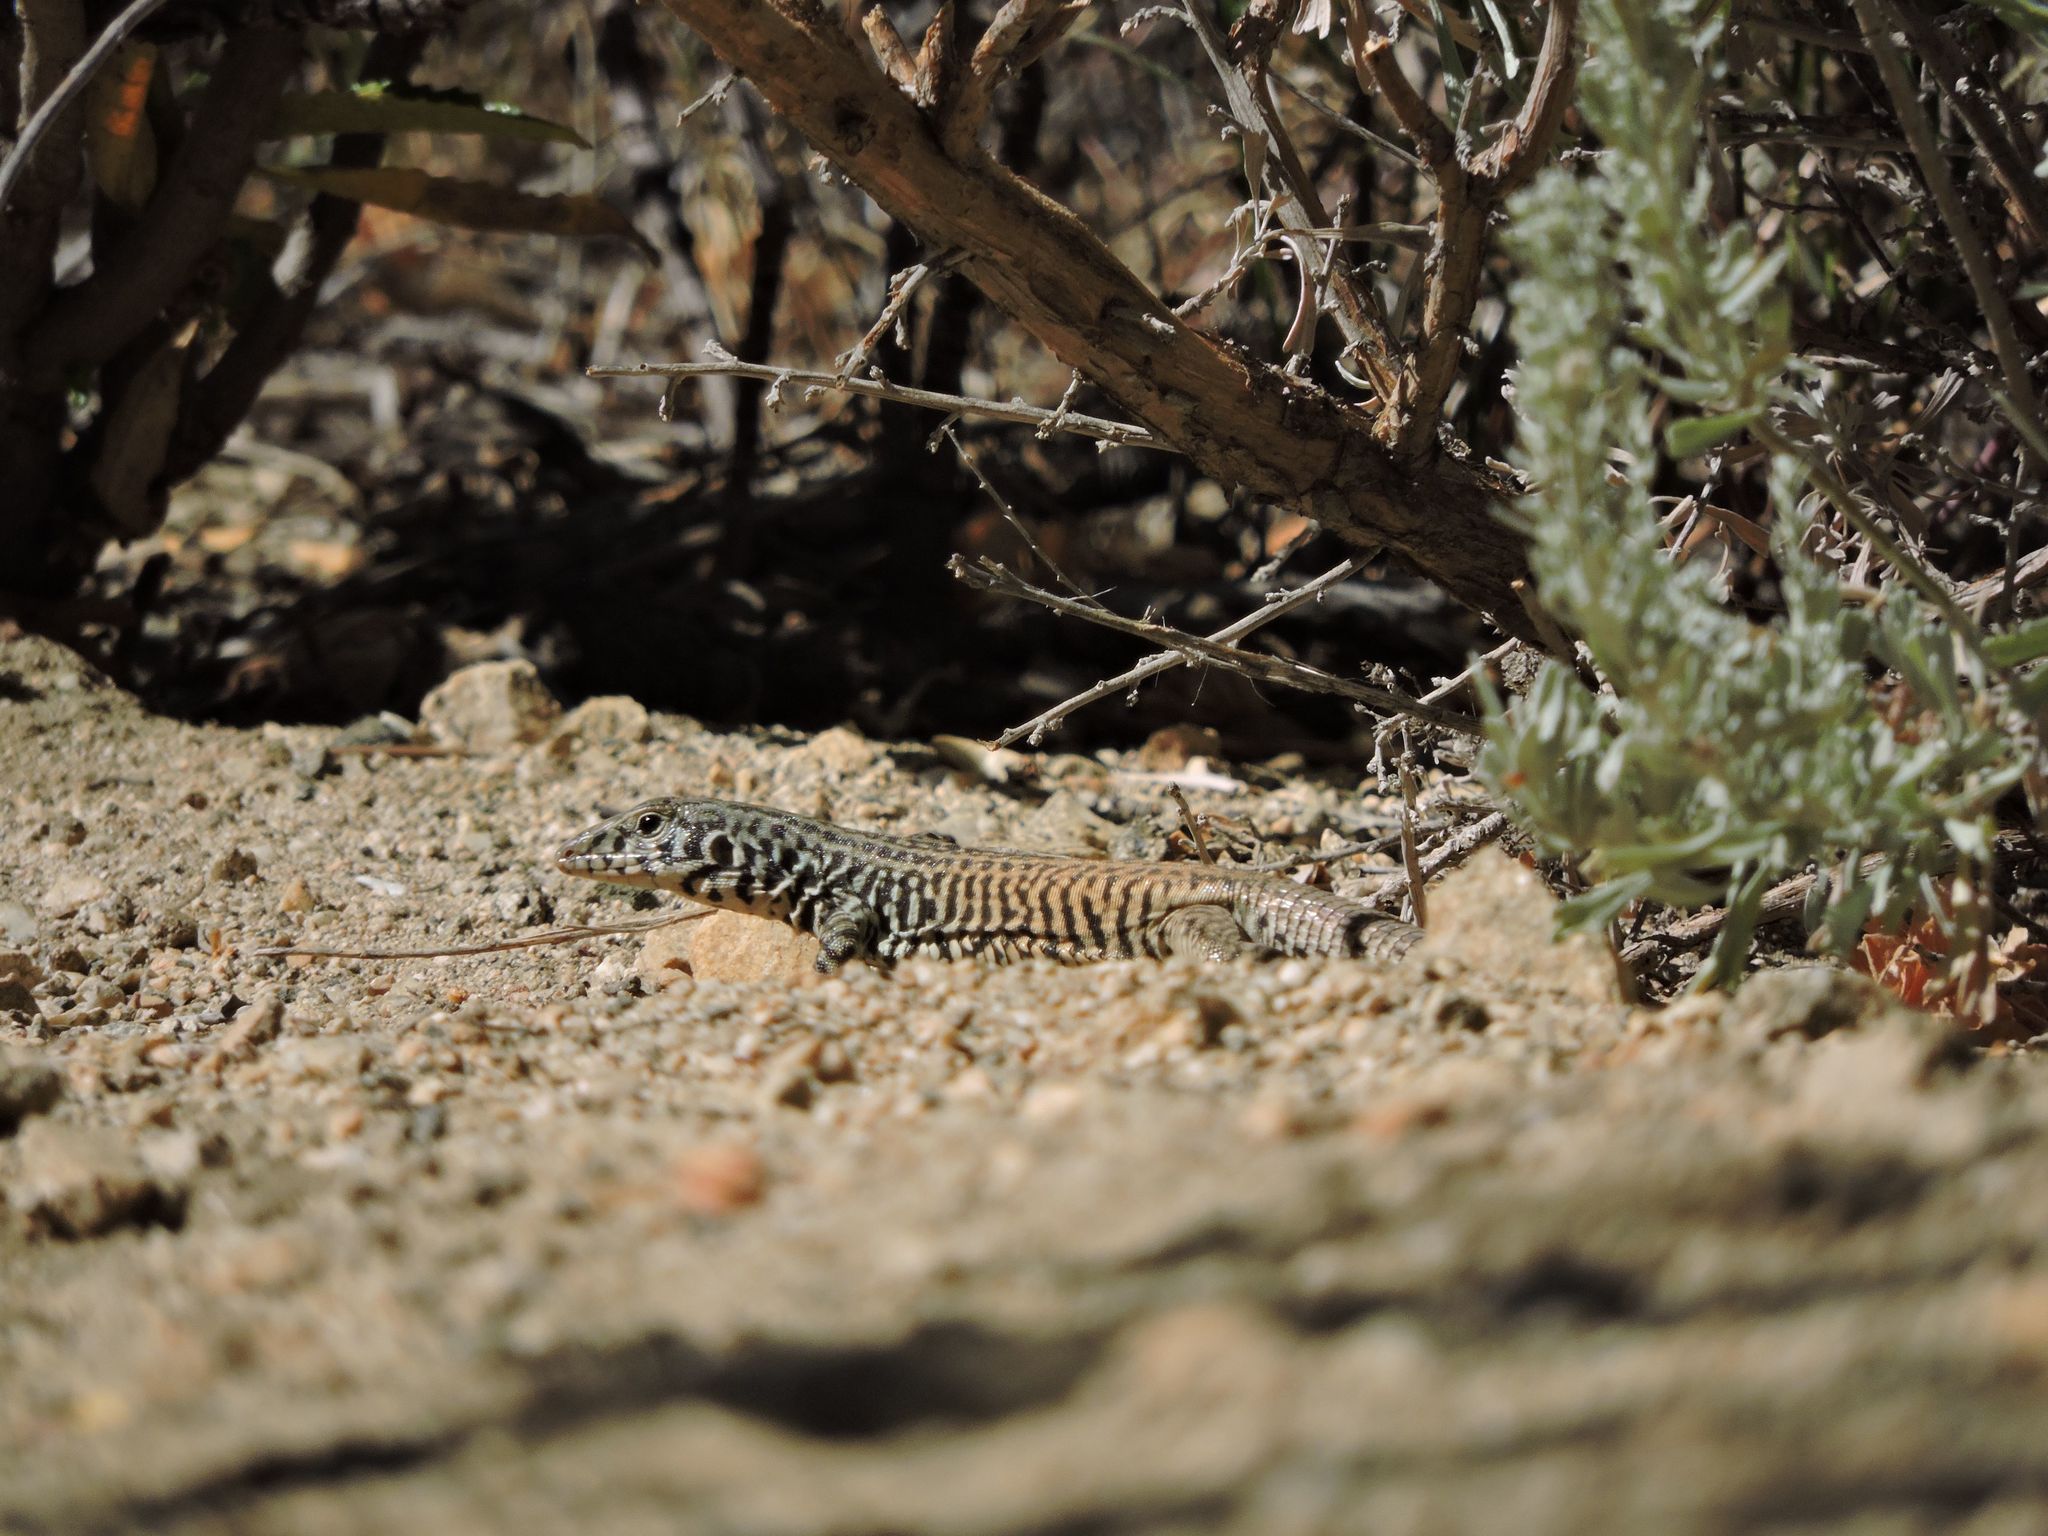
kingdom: Animalia
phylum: Chordata
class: Squamata
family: Teiidae
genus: Aspidoscelis
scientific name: Aspidoscelis tigris
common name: Tiger whiptail
